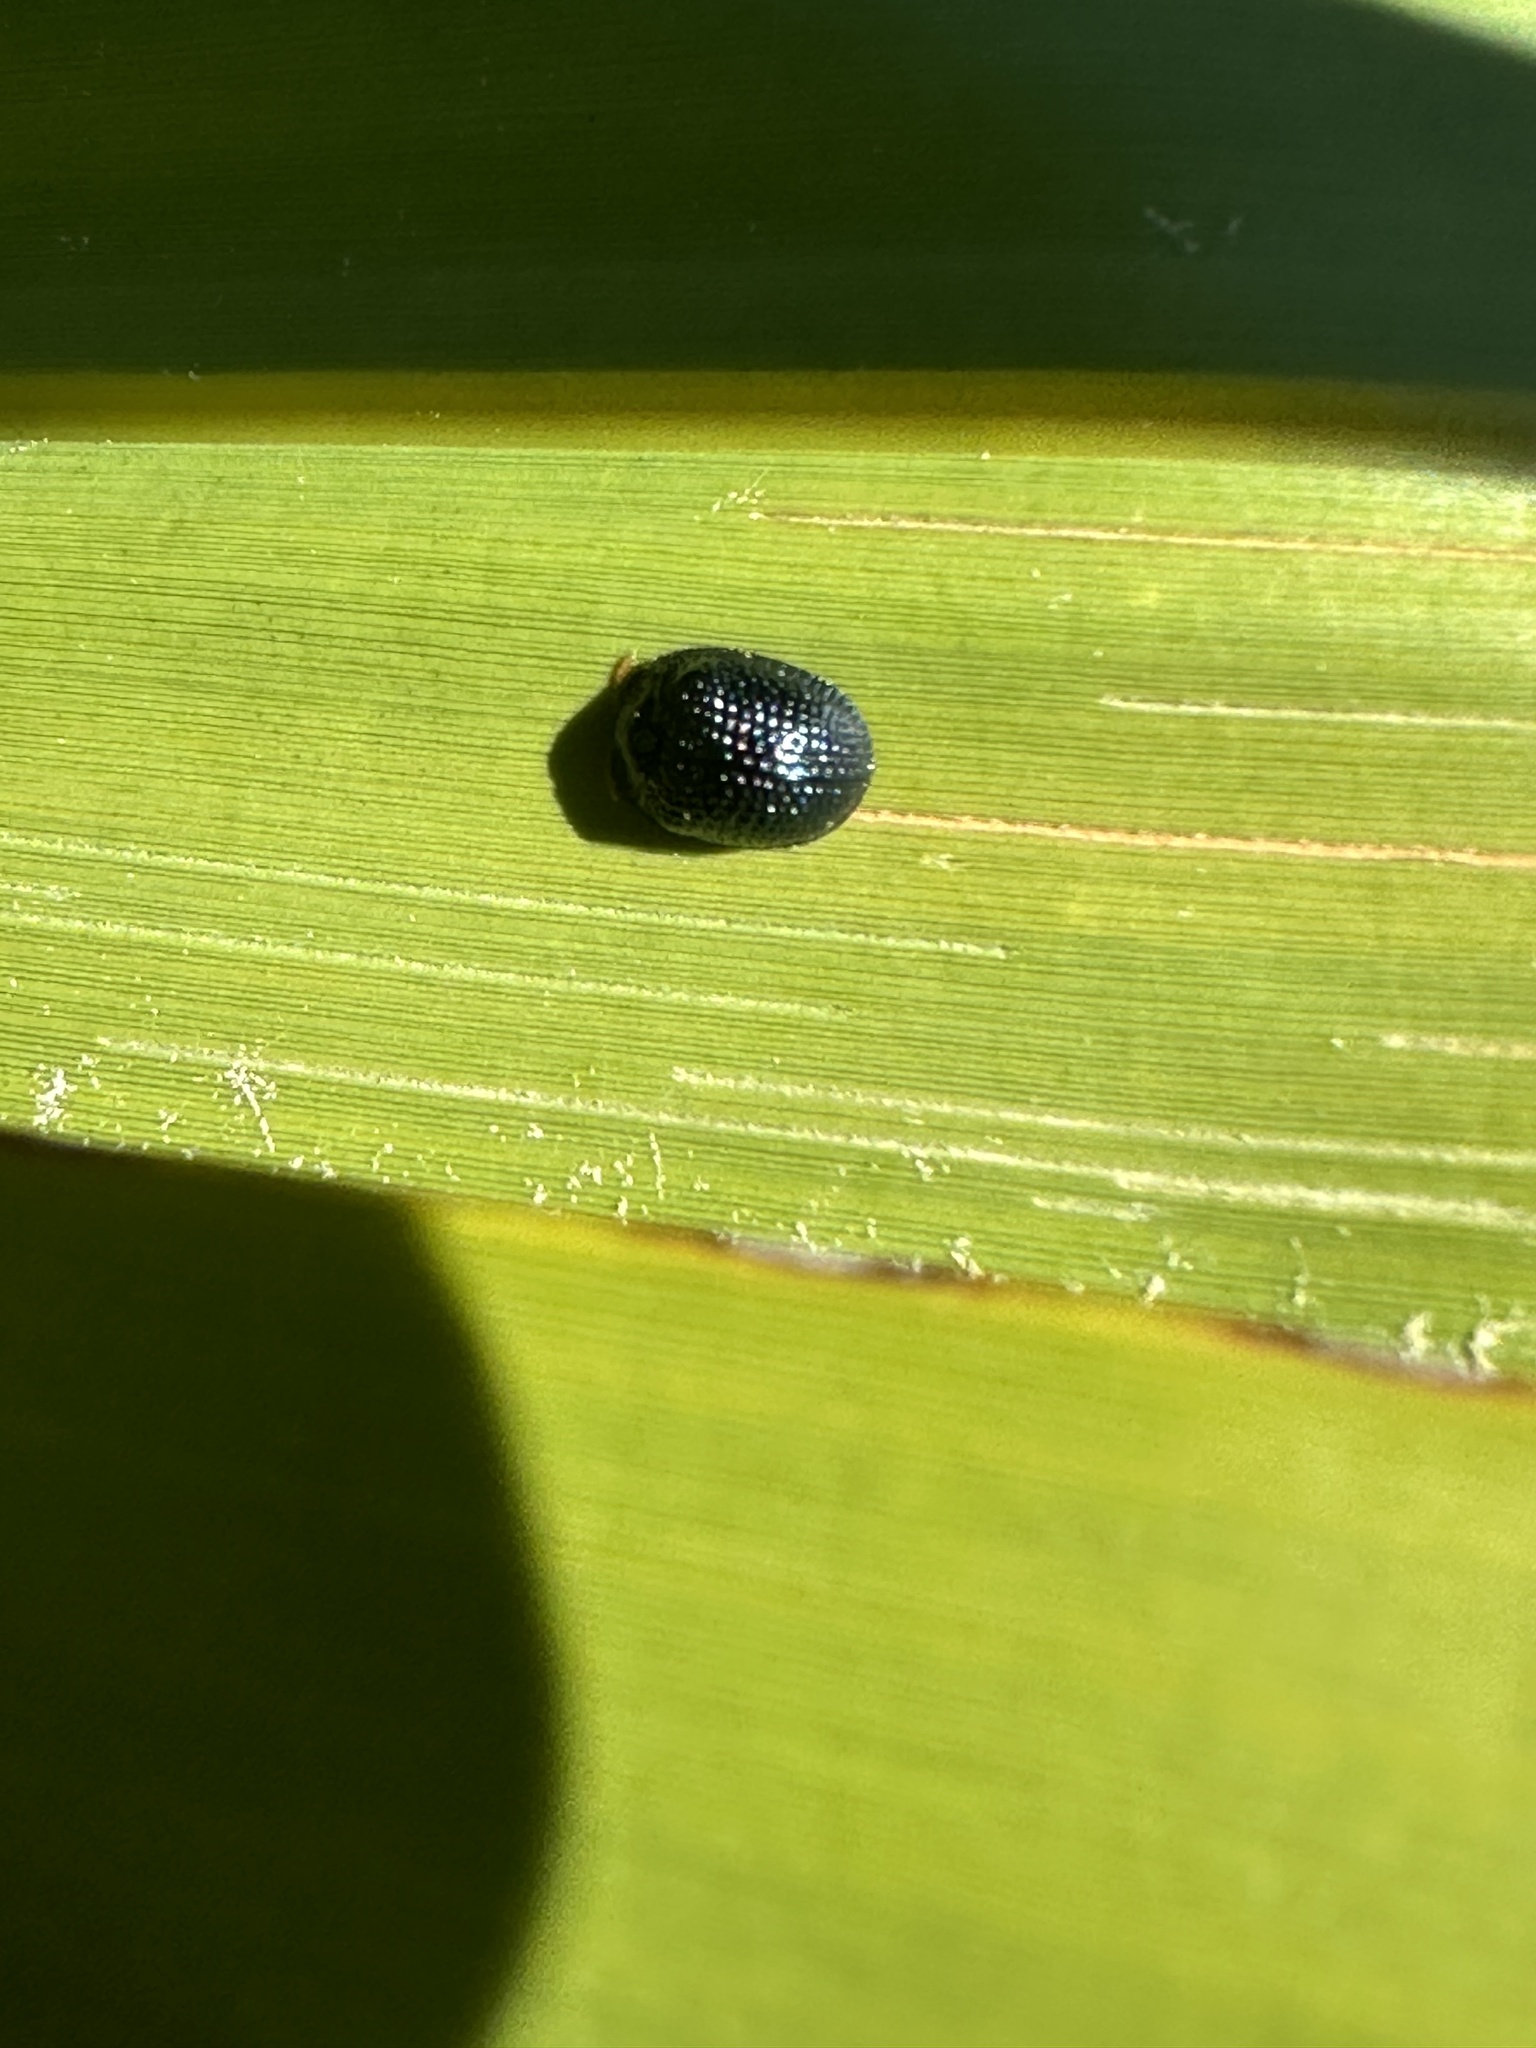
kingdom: Animalia
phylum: Arthropoda
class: Insecta
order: Coleoptera
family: Chrysomelidae
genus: Hemisphaerota
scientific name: Hemisphaerota cyanea
